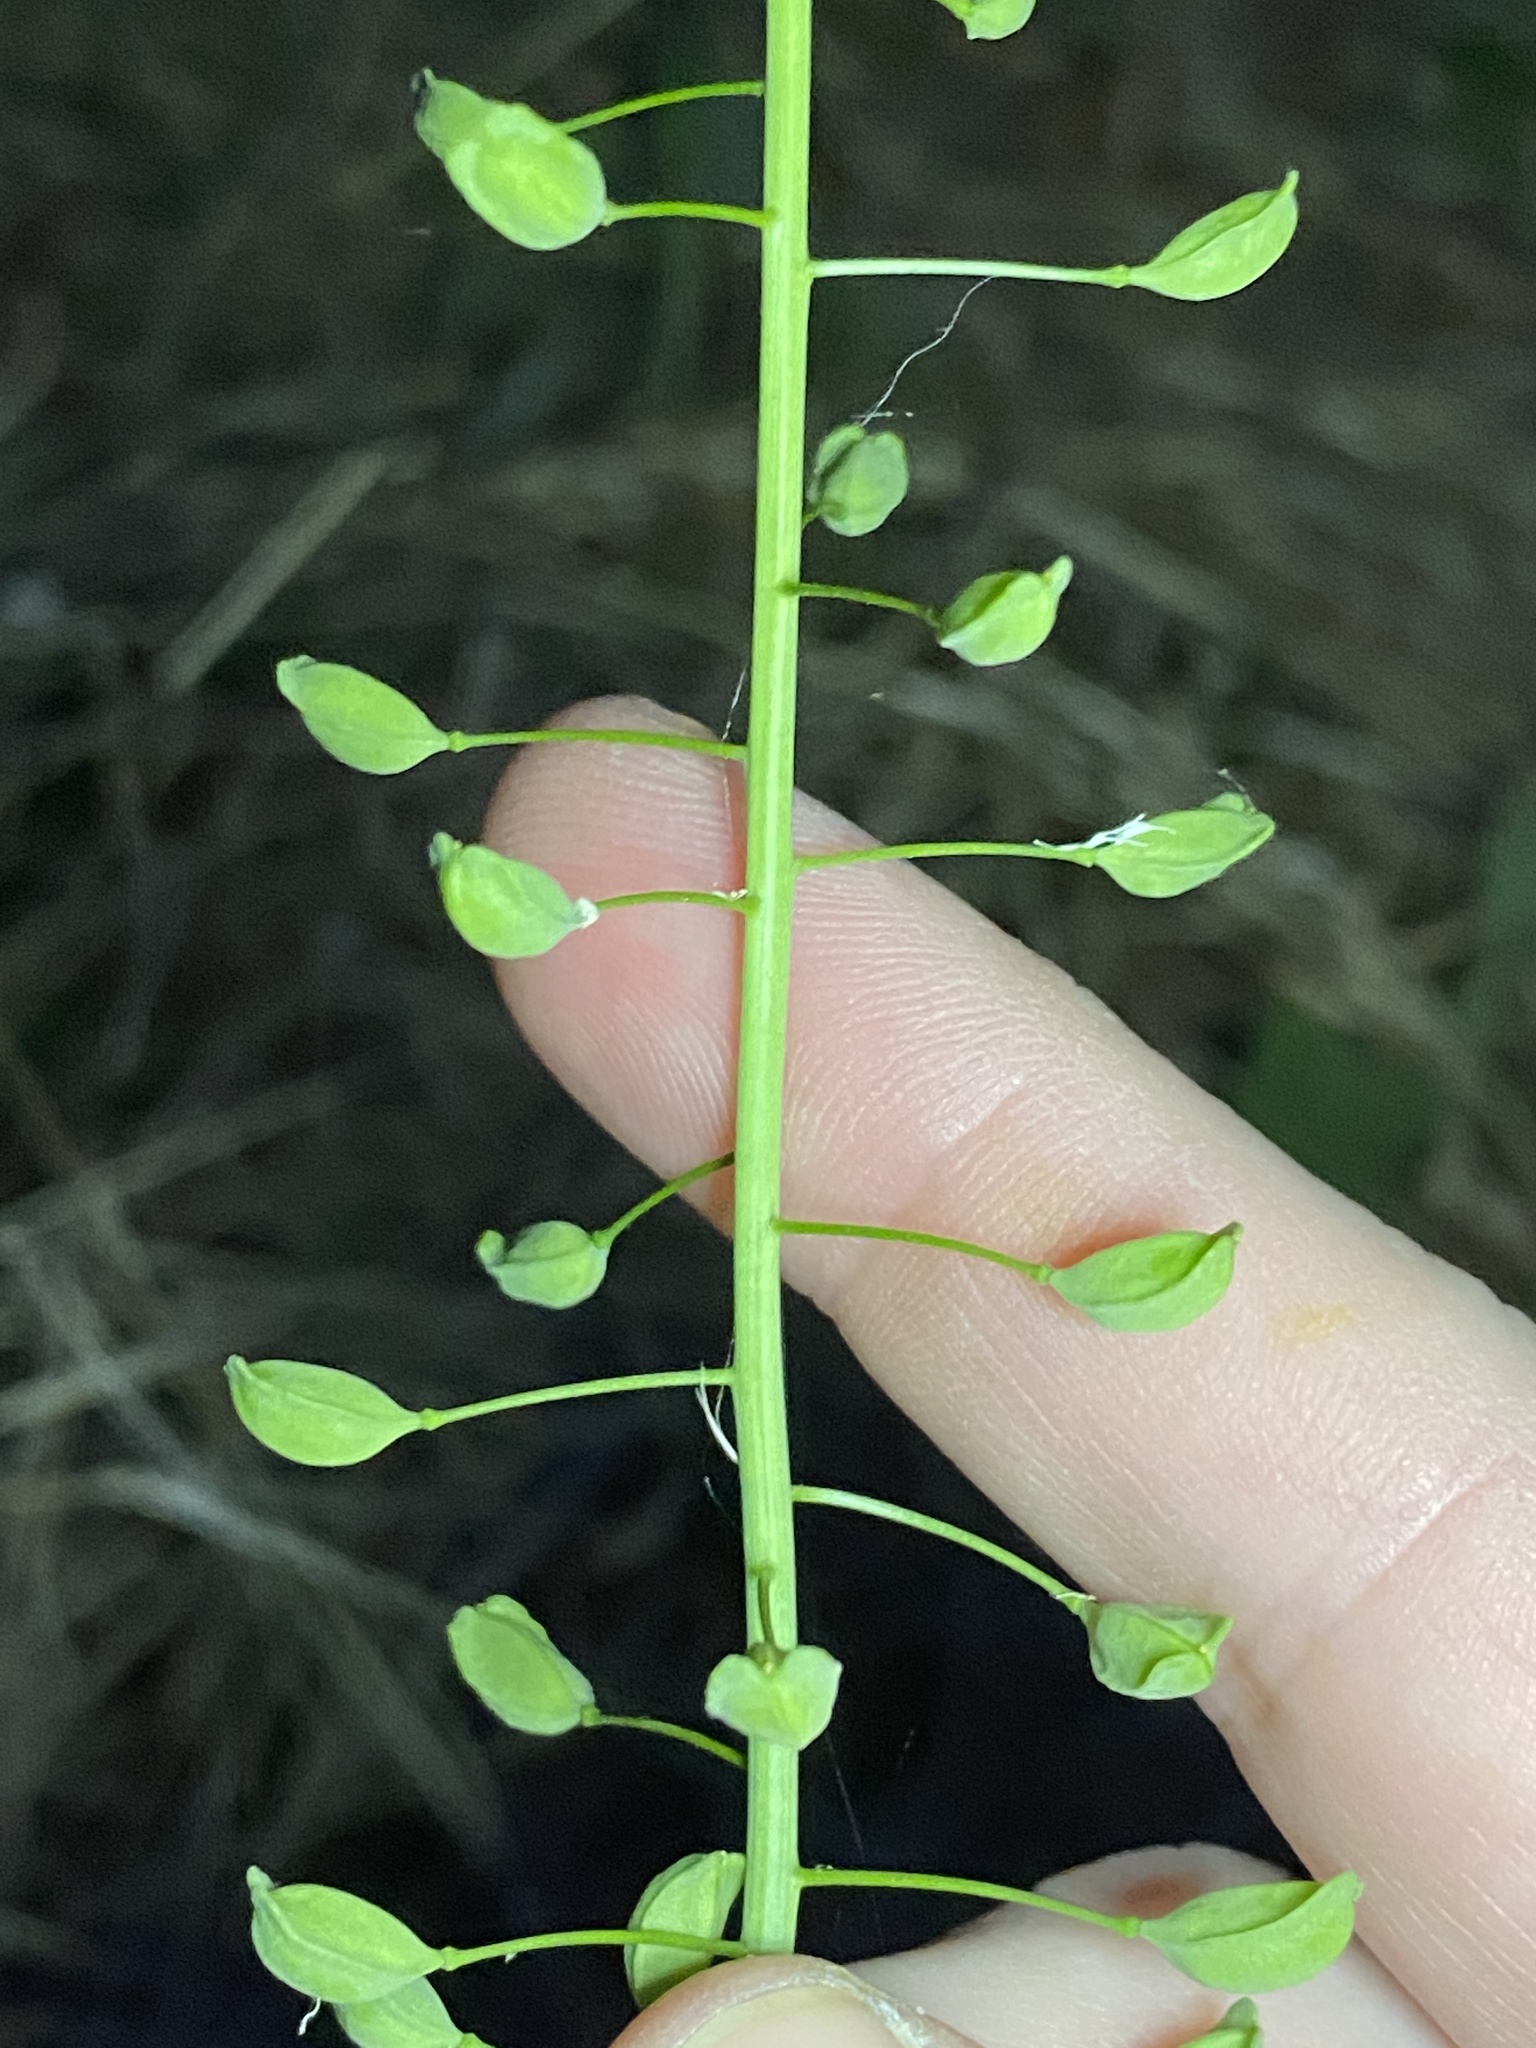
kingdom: Plantae
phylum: Tracheophyta
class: Magnoliopsida
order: Brassicales
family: Brassicaceae
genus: Mummenhoffia
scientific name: Mummenhoffia alliacea
